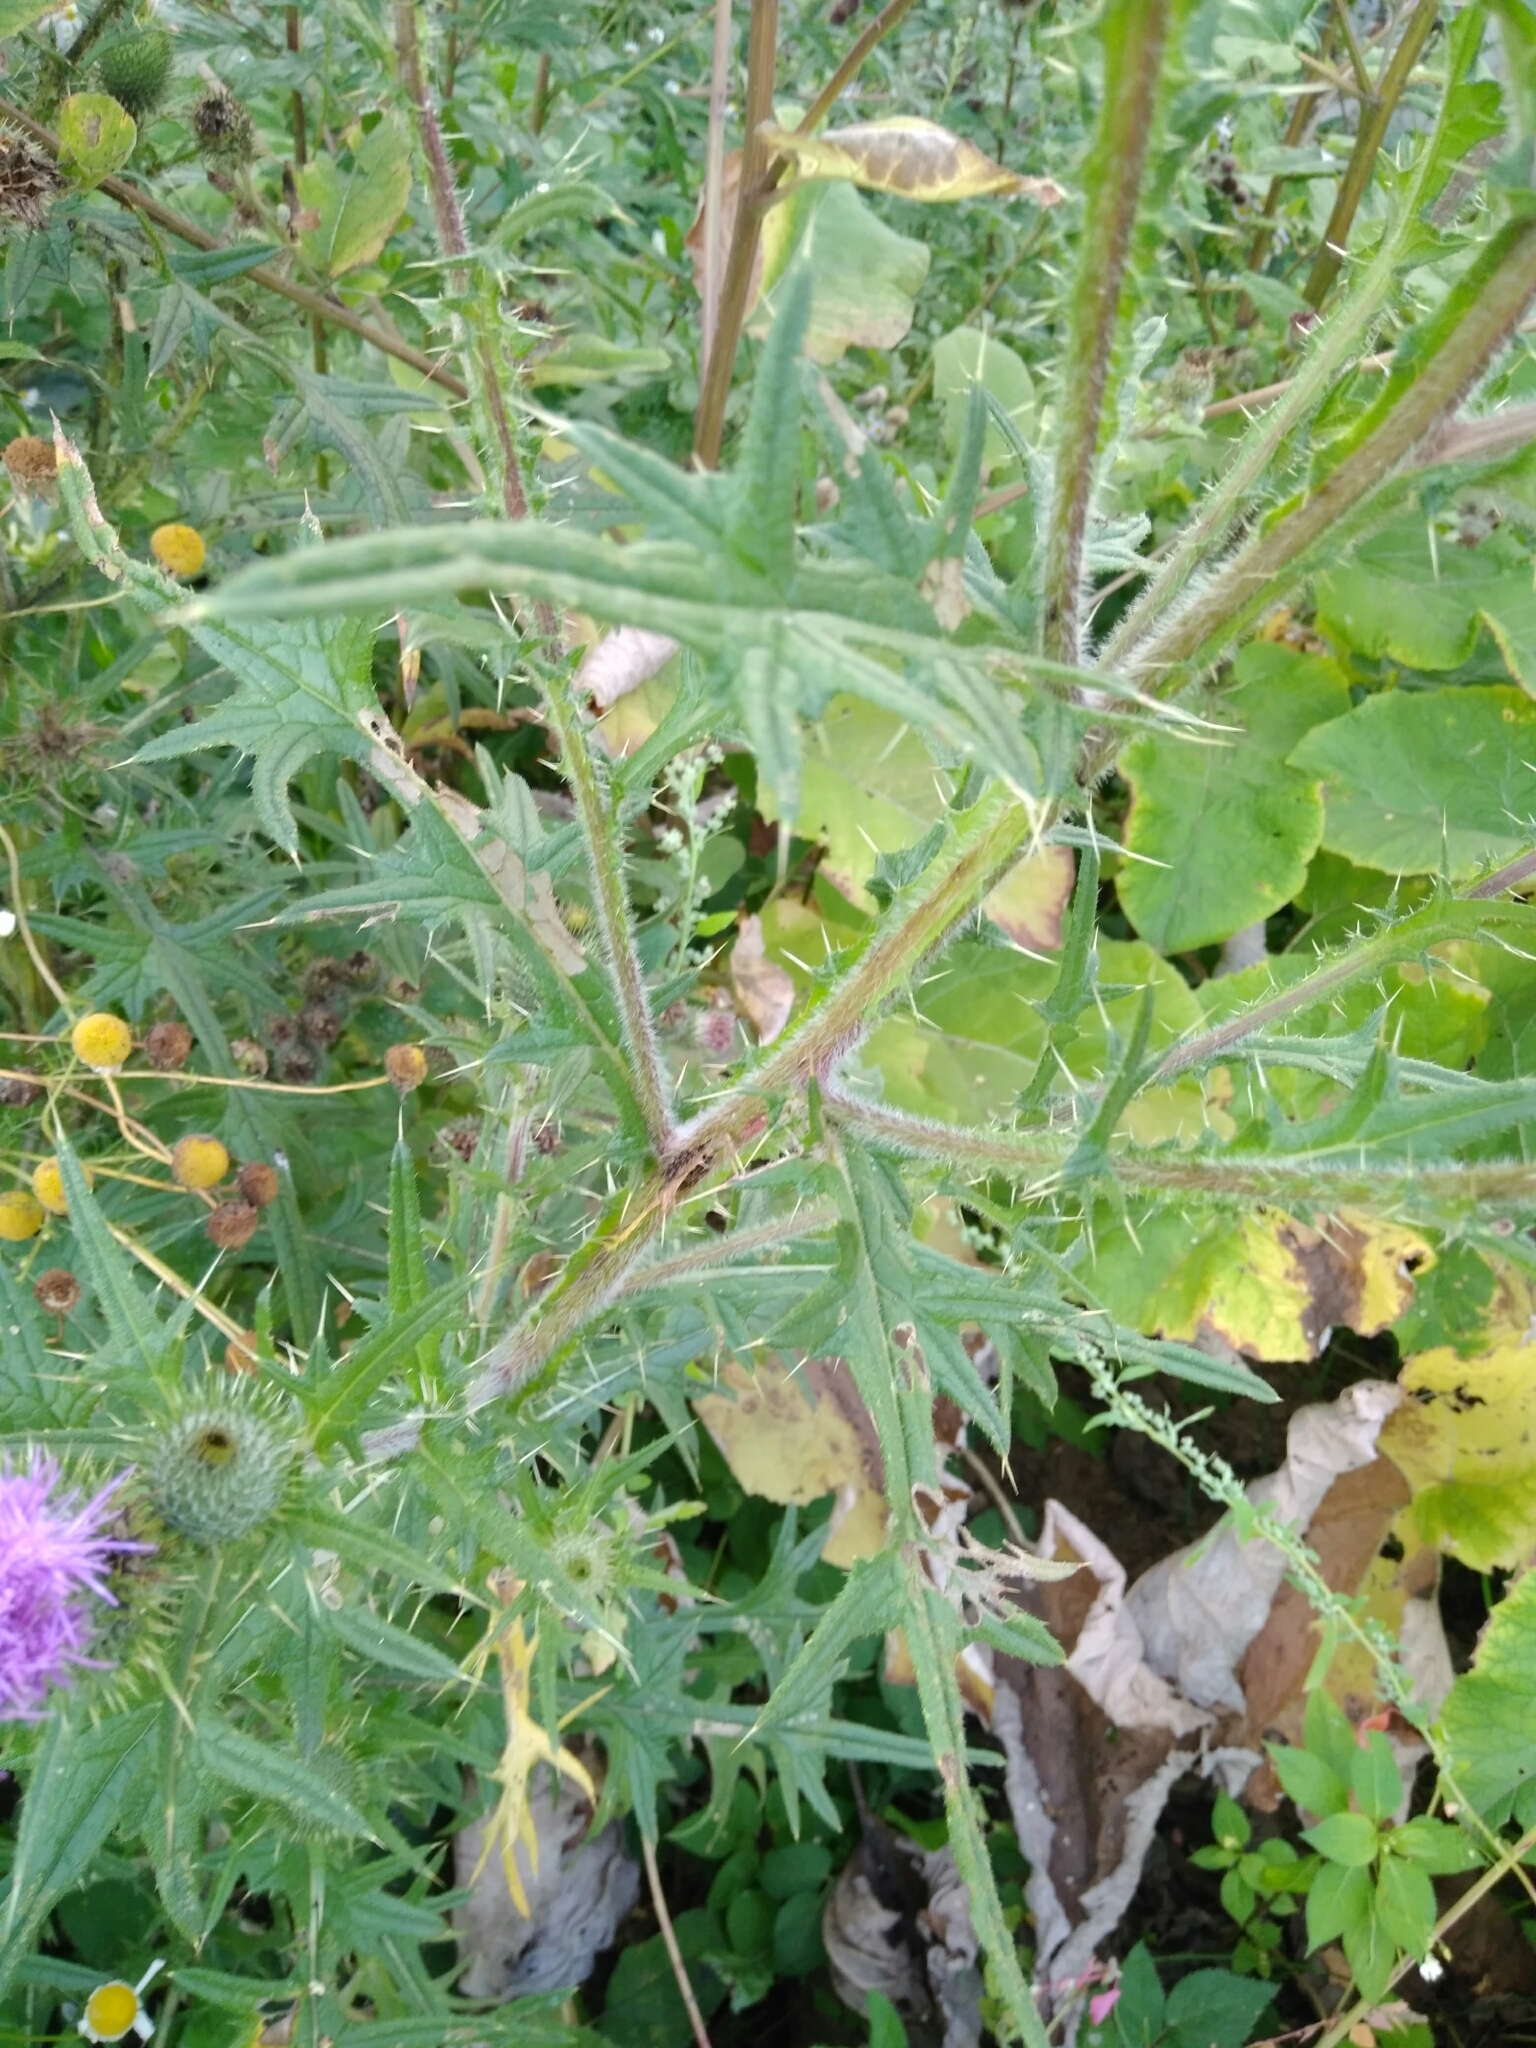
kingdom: Plantae
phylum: Tracheophyta
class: Magnoliopsida
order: Asterales
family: Asteraceae
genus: Cirsium
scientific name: Cirsium vulgare
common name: Bull thistle
